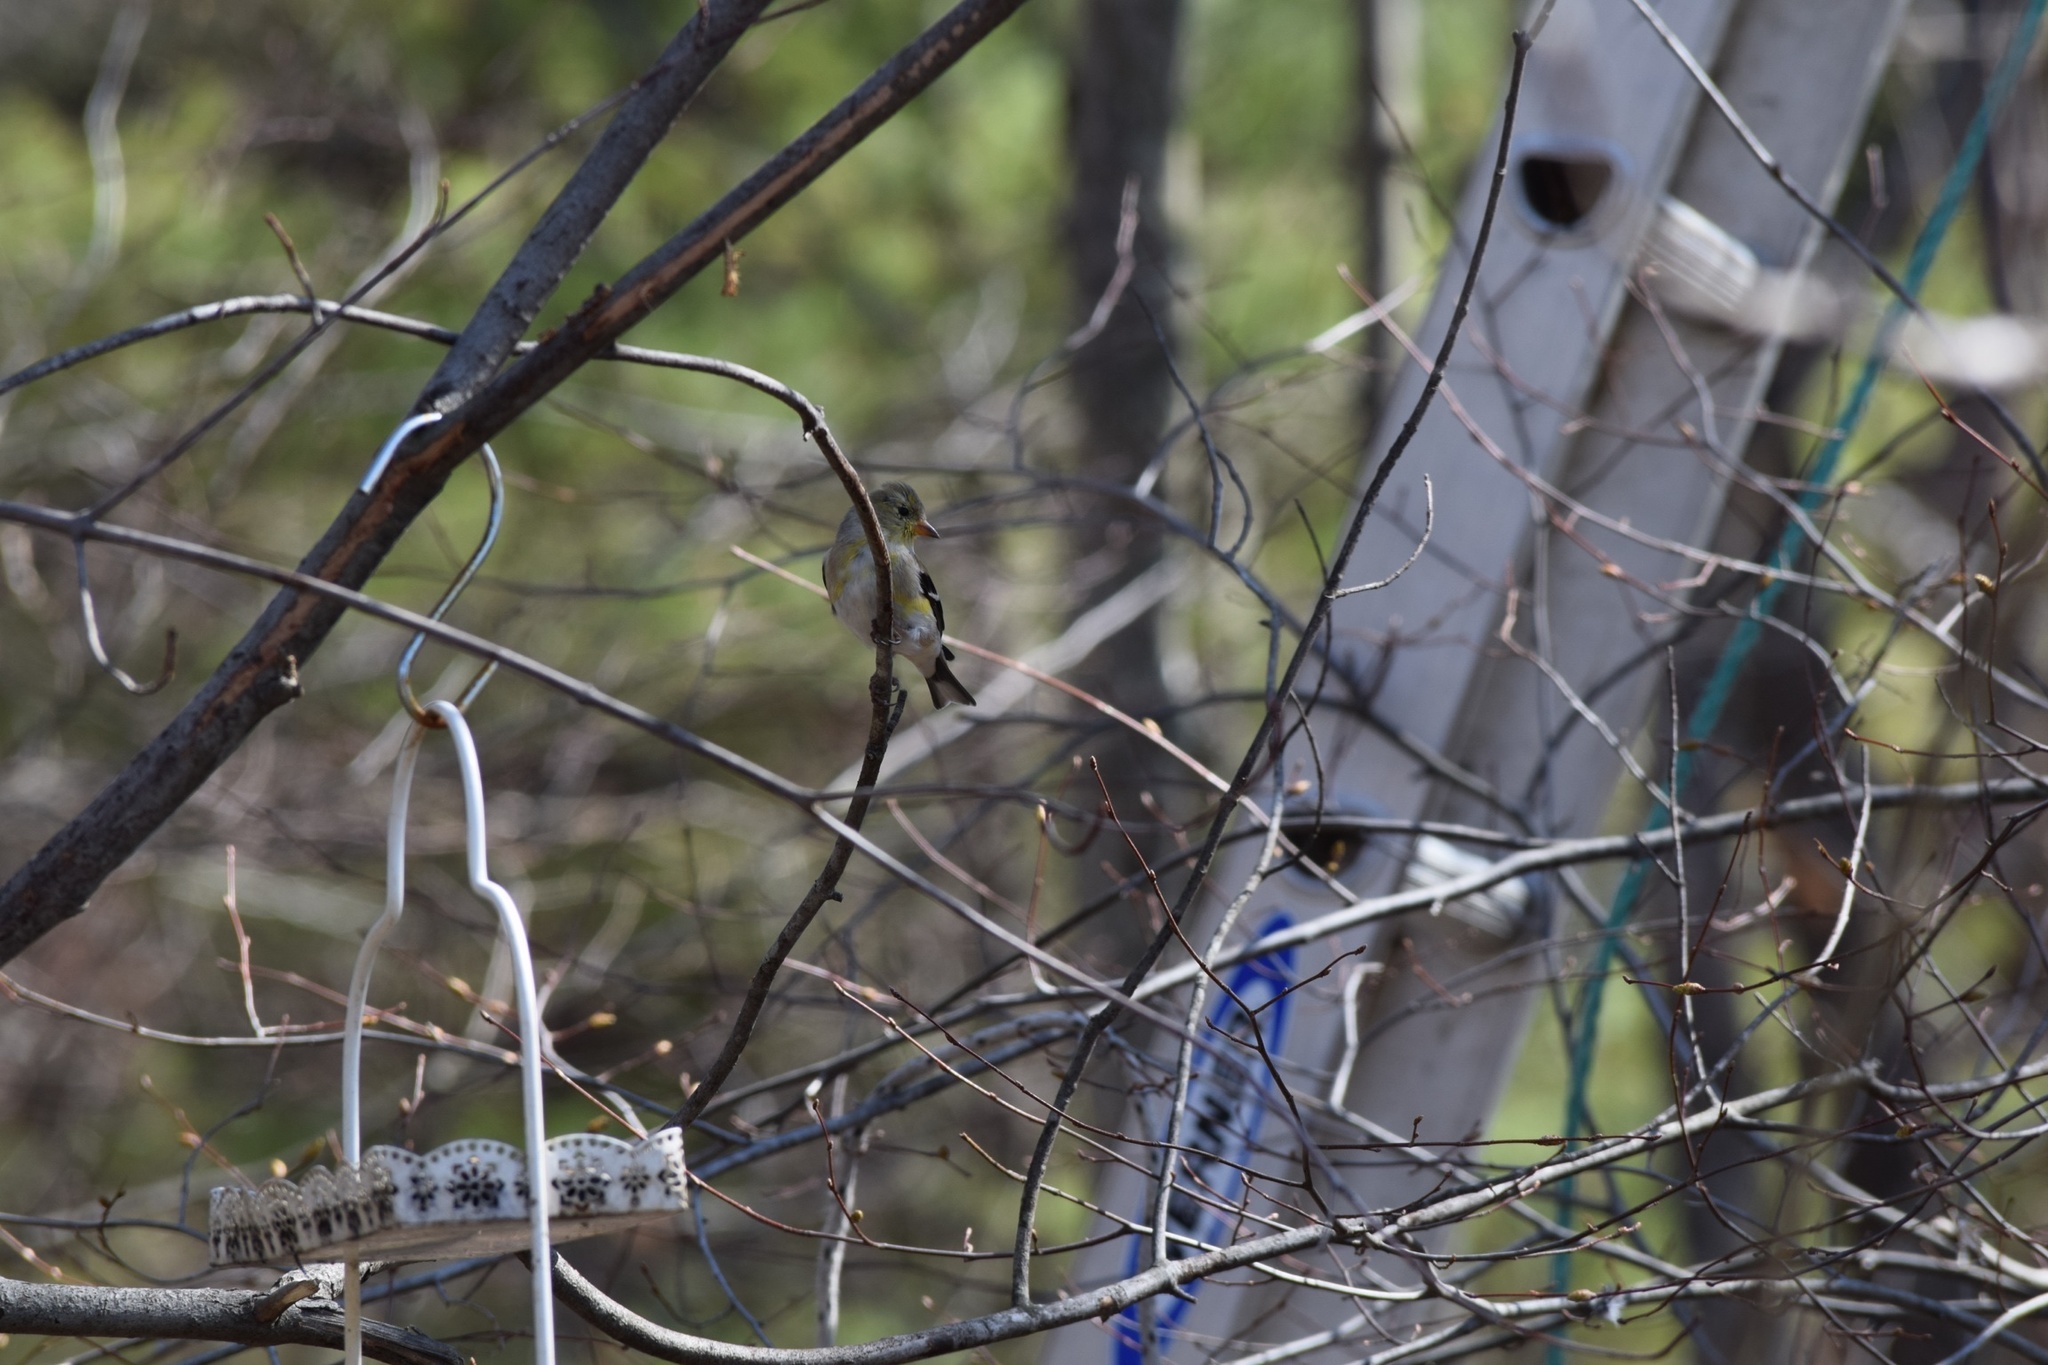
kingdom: Animalia
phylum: Chordata
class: Aves
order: Passeriformes
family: Fringillidae
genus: Spinus
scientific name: Spinus tristis
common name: American goldfinch
